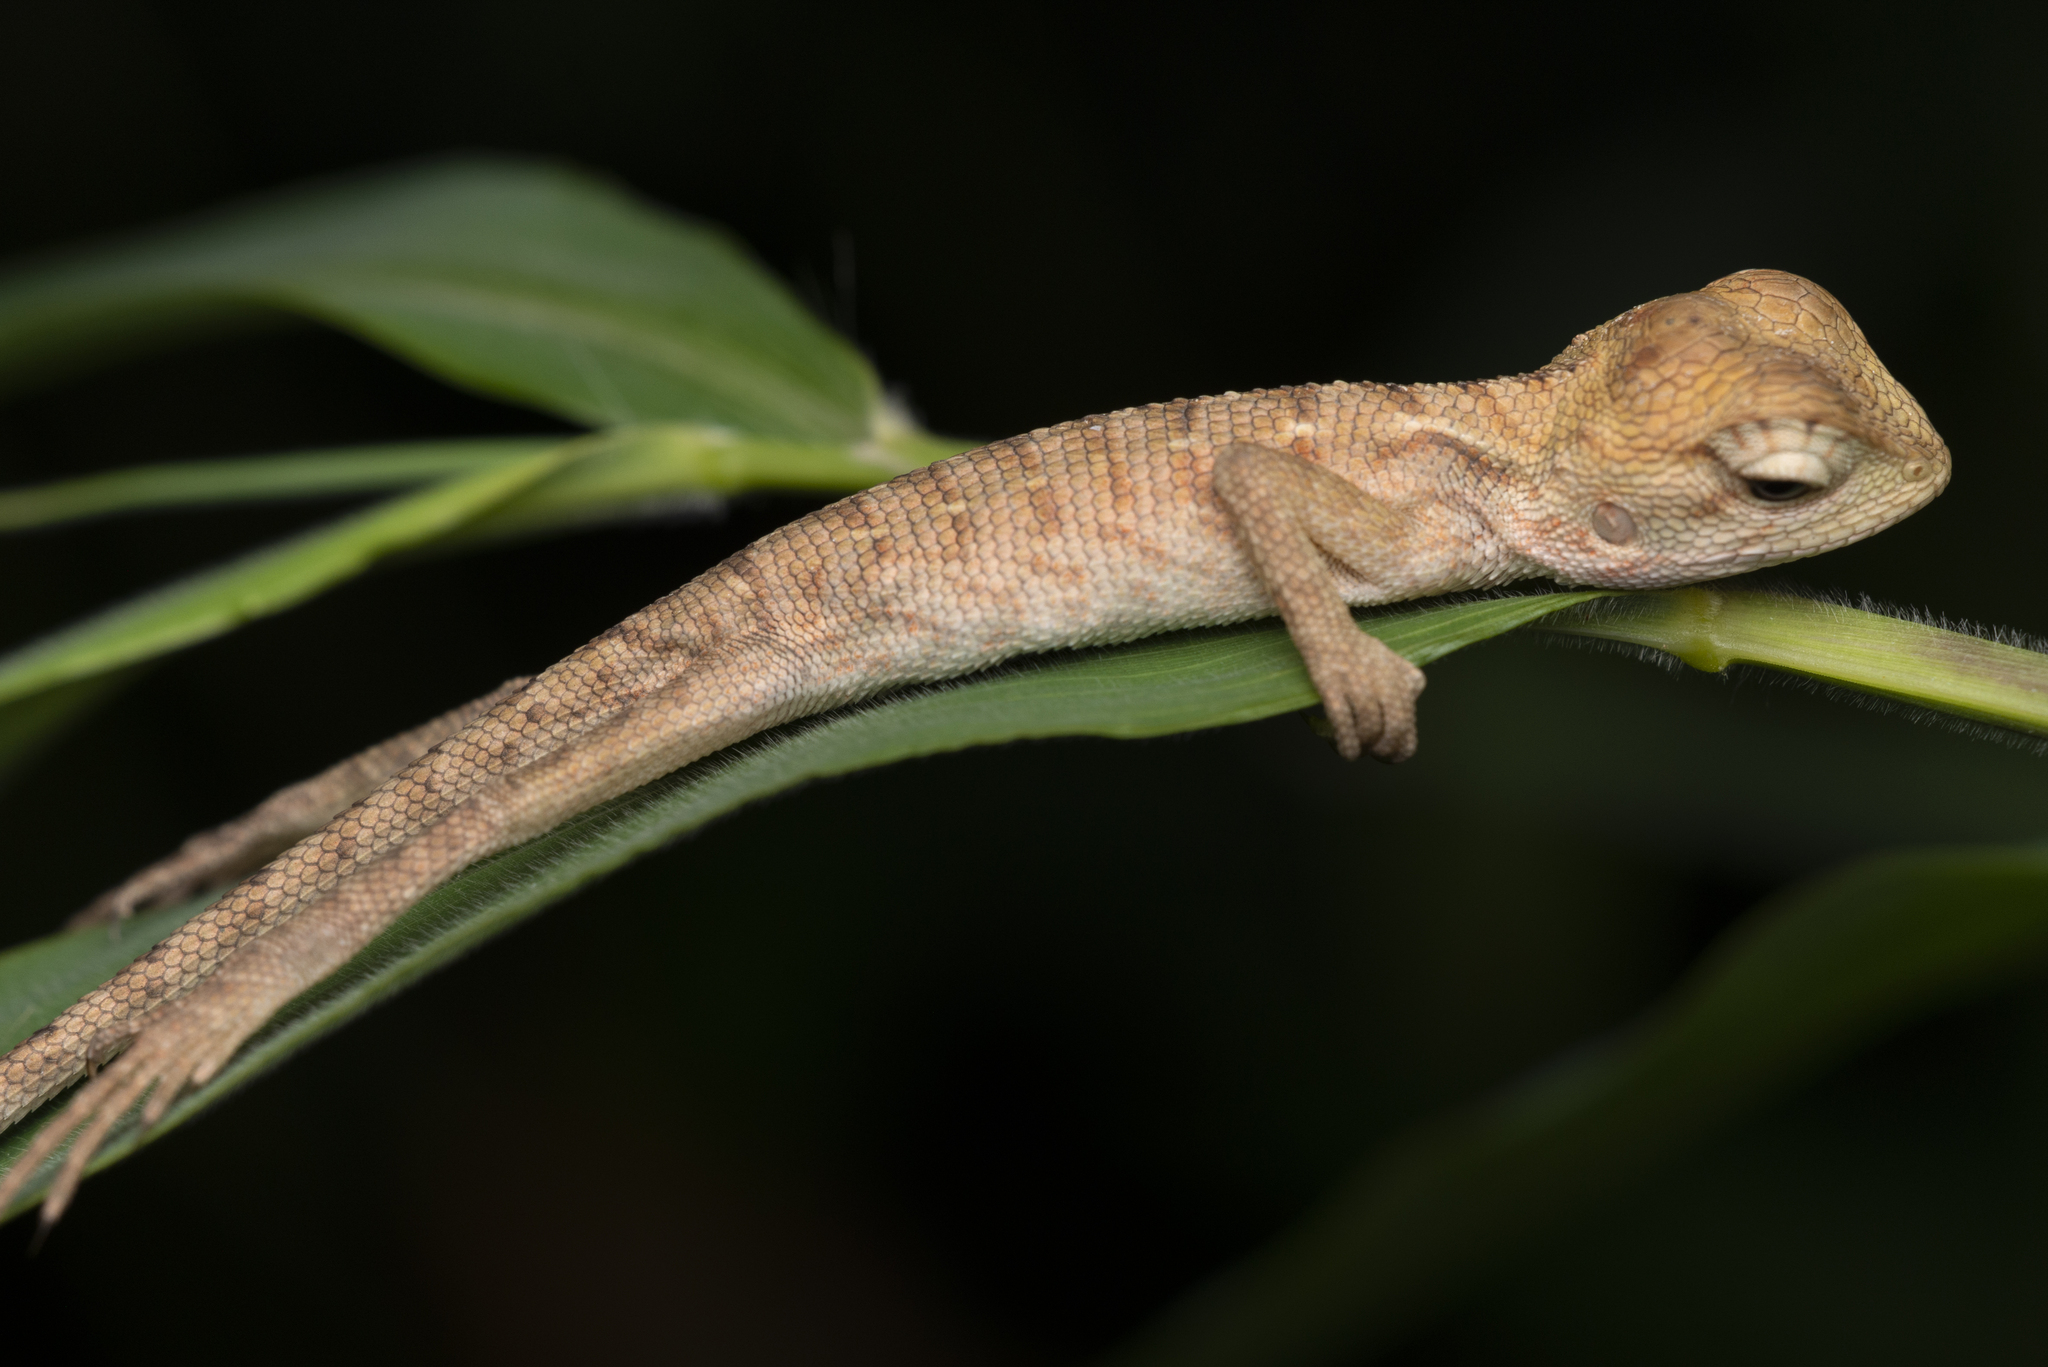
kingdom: Animalia
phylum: Chordata
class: Squamata
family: Agamidae
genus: Calotes
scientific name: Calotes versicolor
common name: Oriental garden lizard
